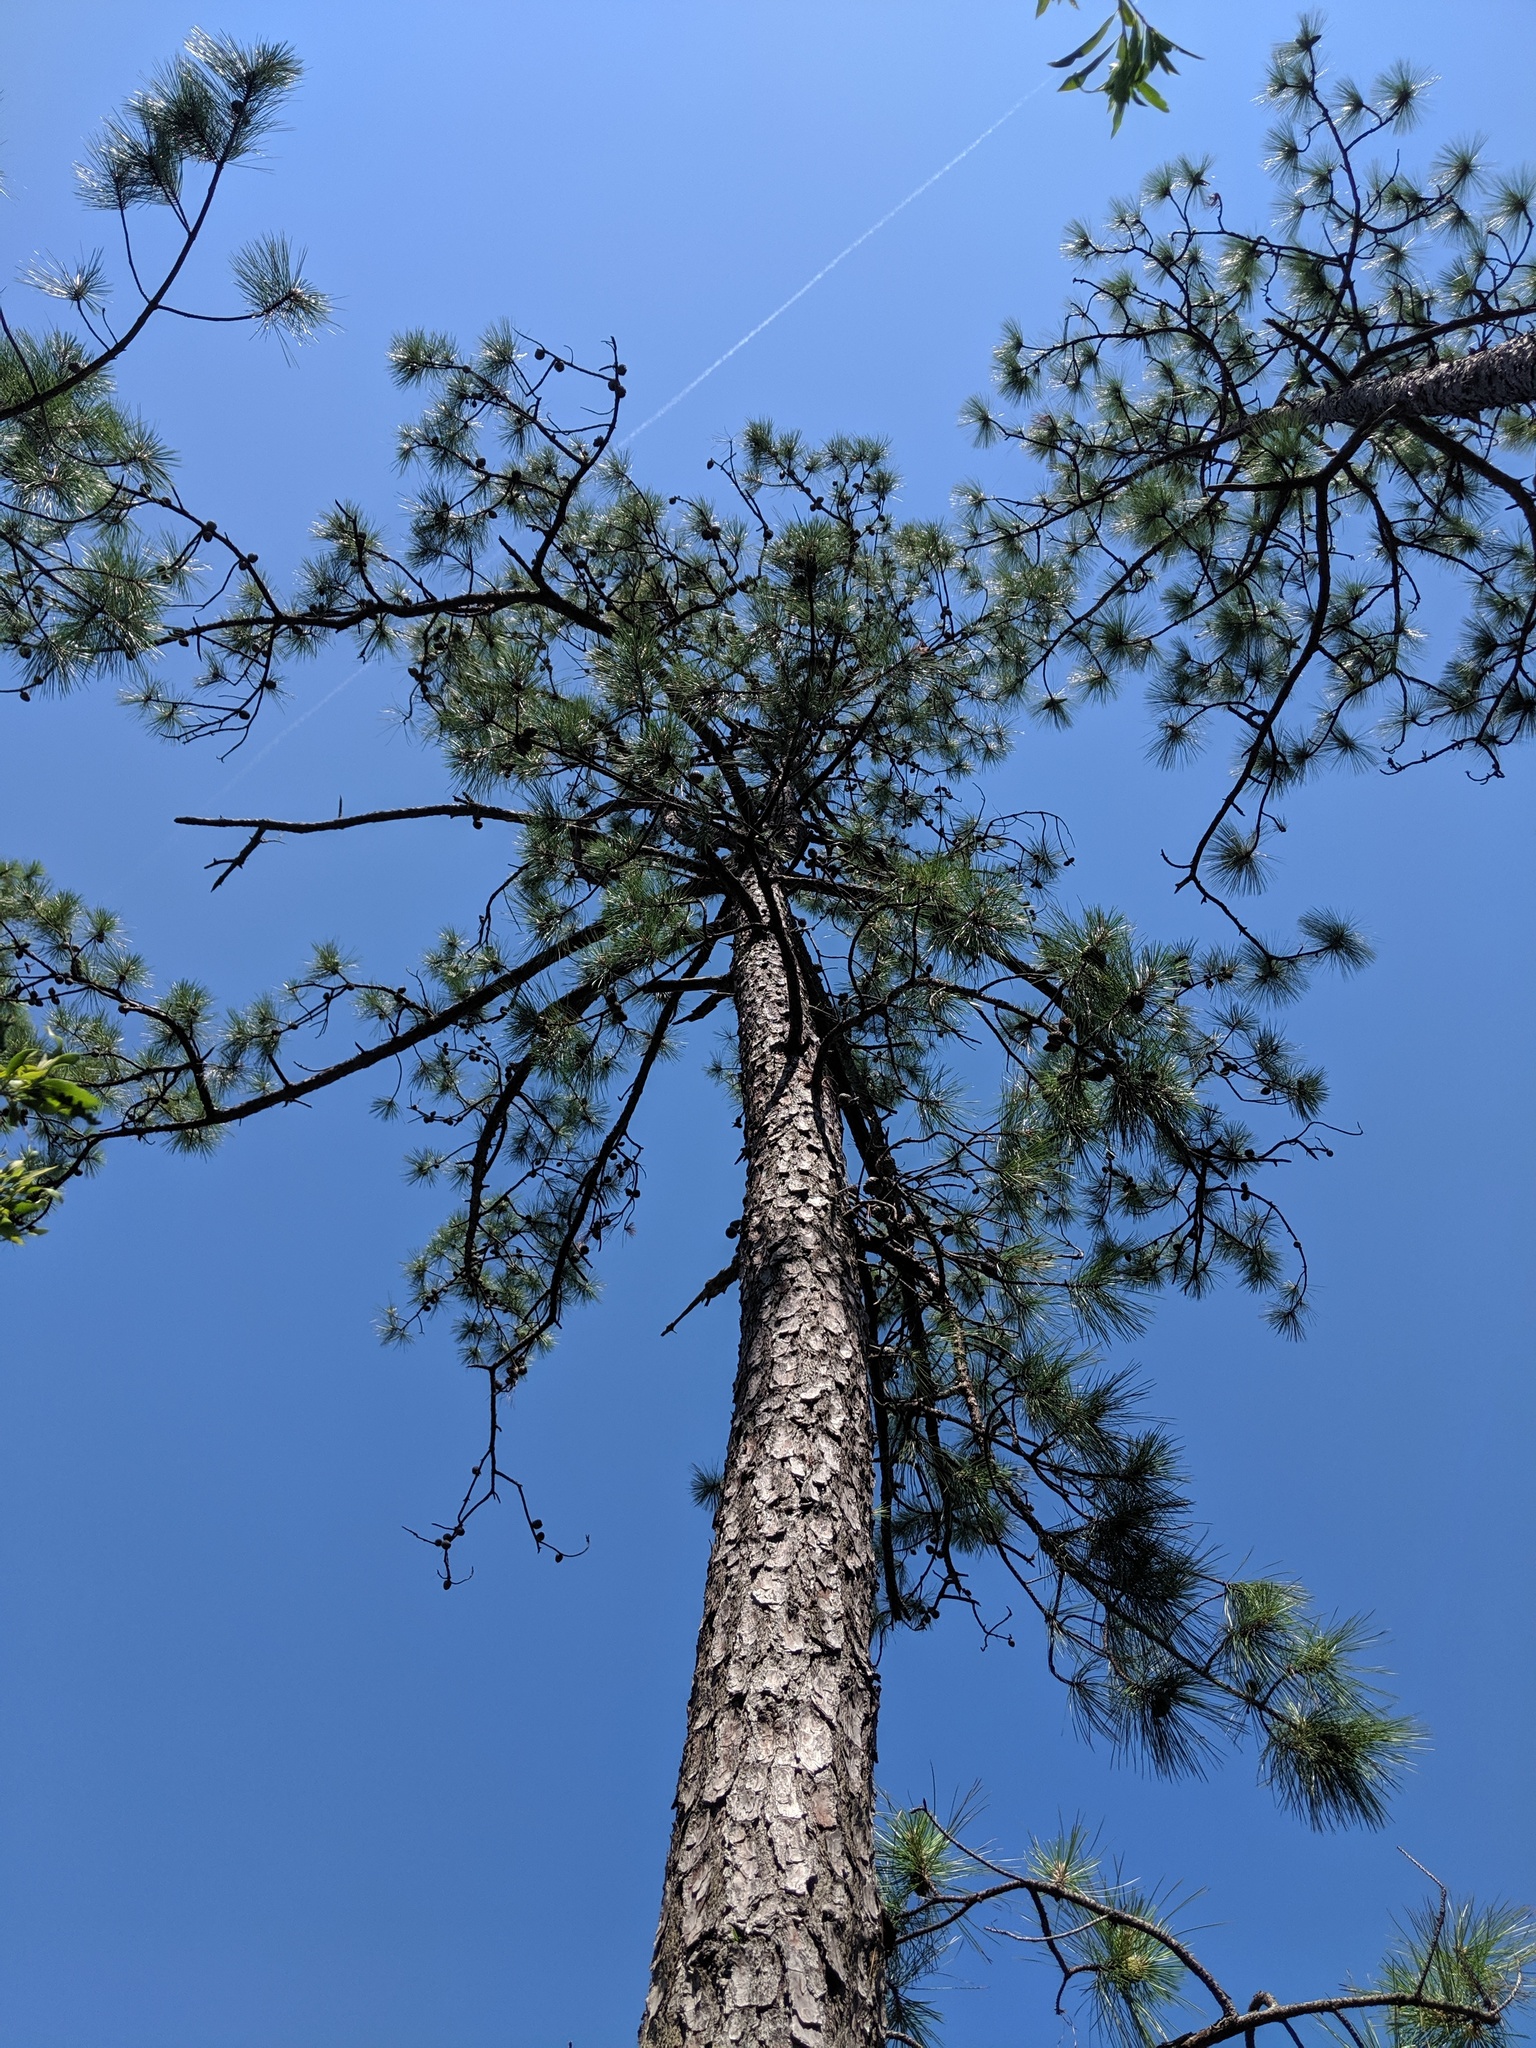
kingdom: Plantae
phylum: Tracheophyta
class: Pinopsida
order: Pinales
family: Pinaceae
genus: Pinus
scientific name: Pinus serotina
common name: Marsh pine
